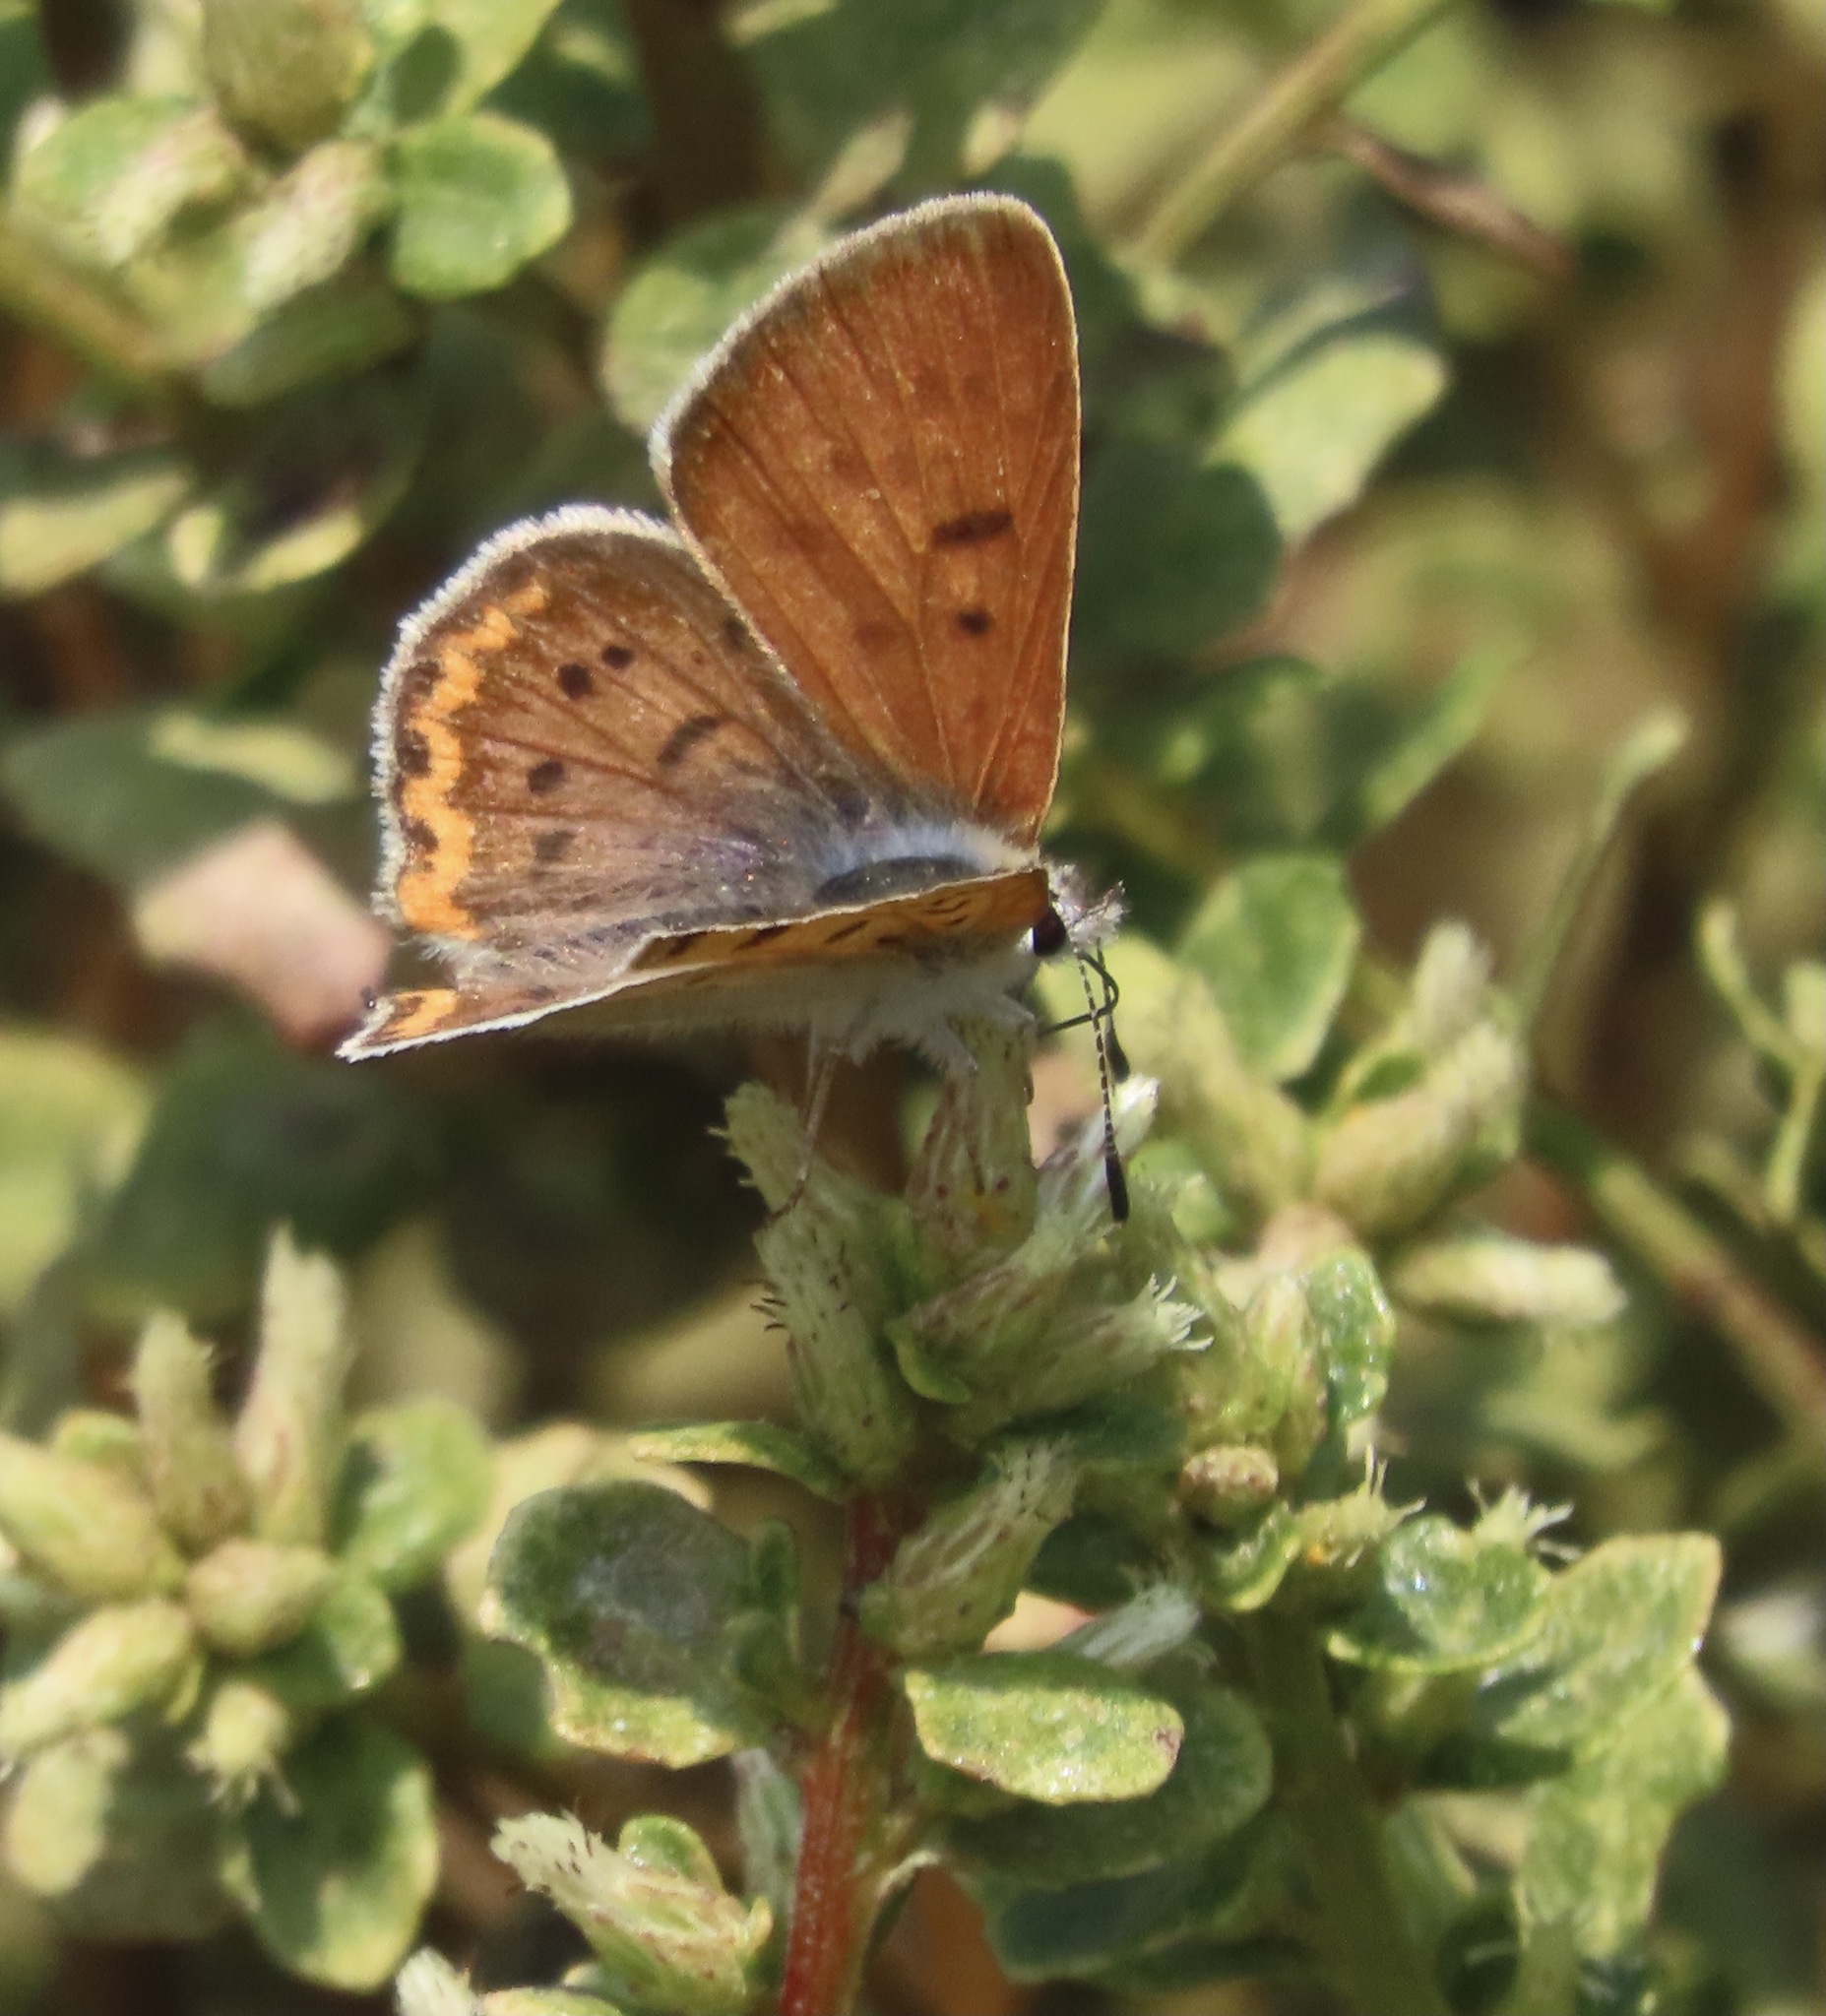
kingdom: Animalia
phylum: Arthropoda
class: Insecta
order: Lepidoptera
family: Lycaenidae
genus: Tharsalea
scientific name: Tharsalea helloides
